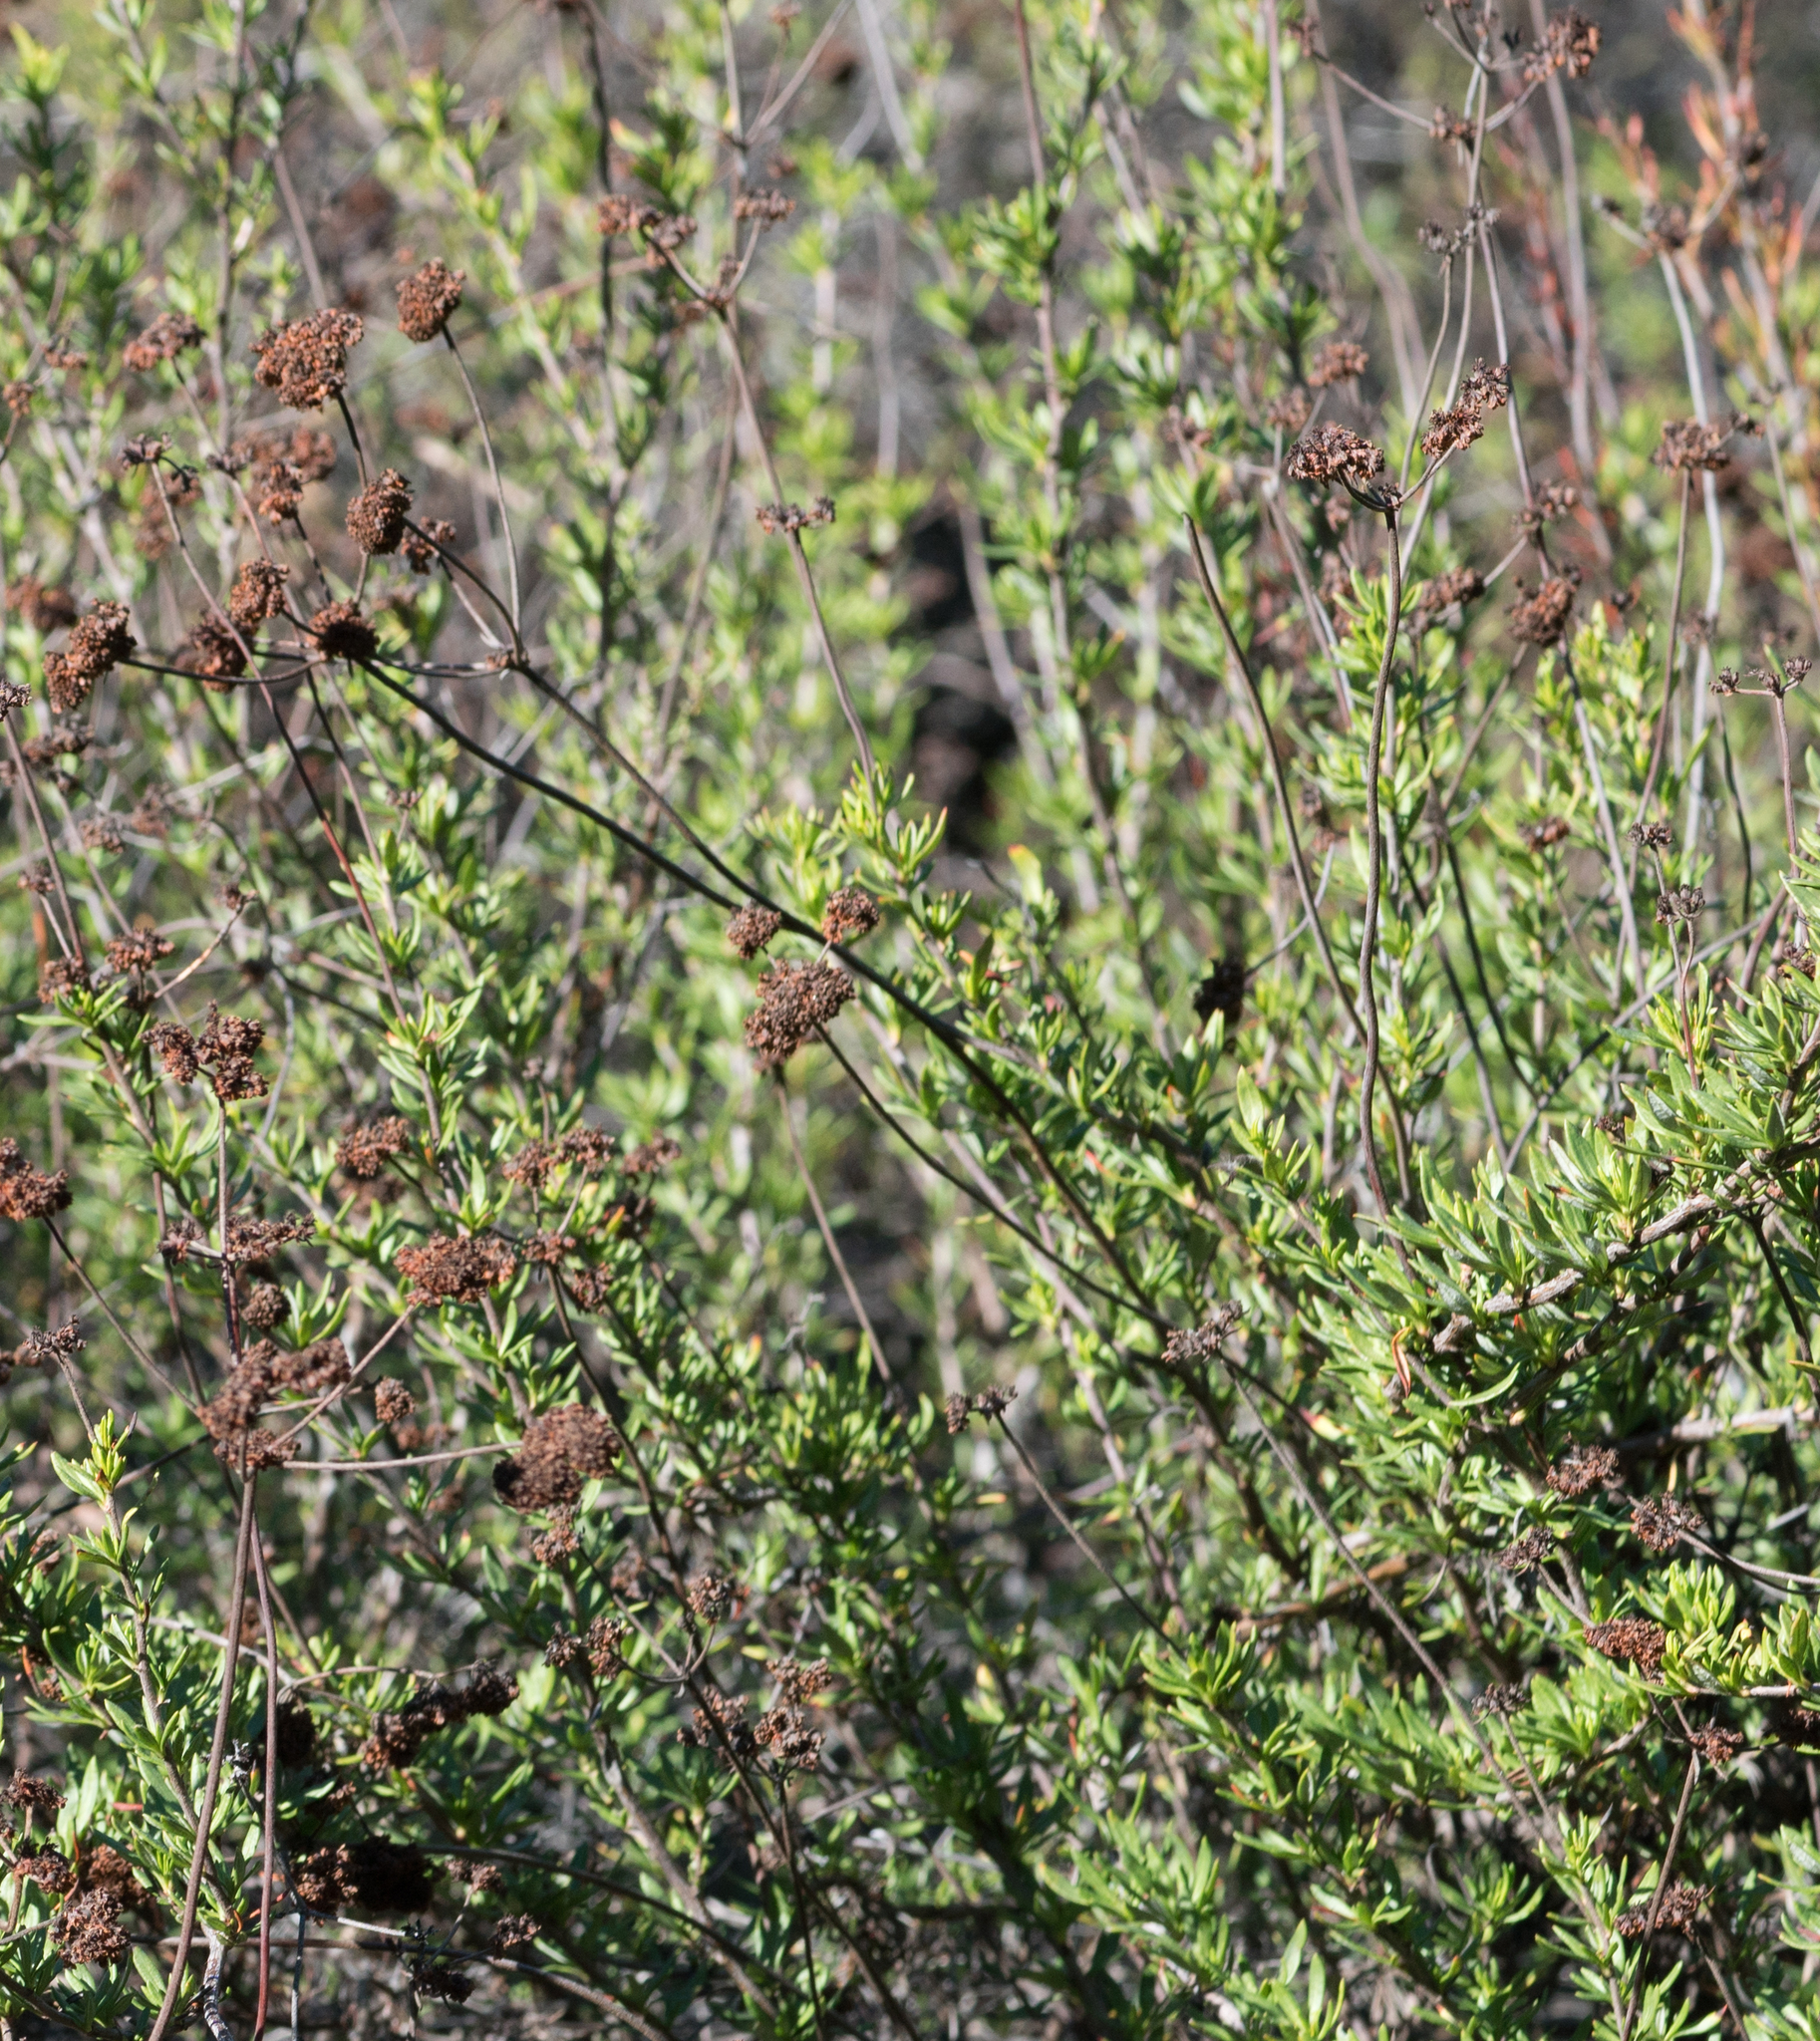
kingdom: Plantae
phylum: Tracheophyta
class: Magnoliopsida
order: Caryophyllales
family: Polygonaceae
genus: Eriogonum
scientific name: Eriogonum fasciculatum
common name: California wild buckwheat
